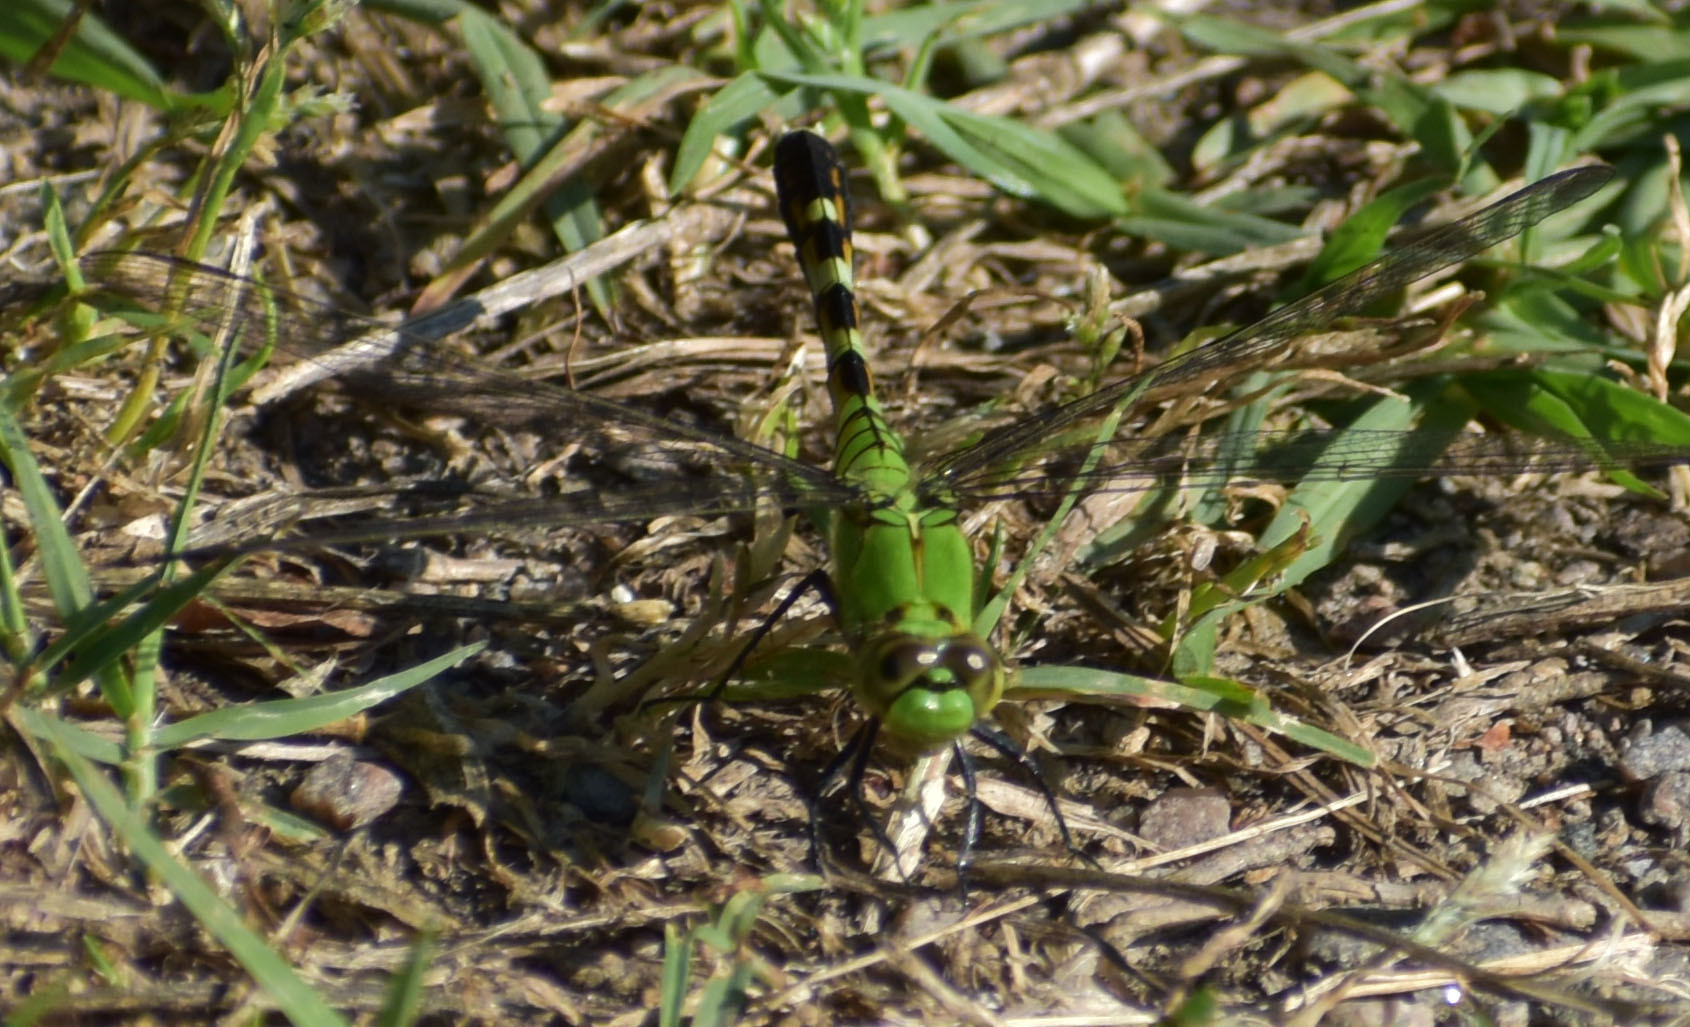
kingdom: Animalia
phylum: Arthropoda
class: Insecta
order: Odonata
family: Libellulidae
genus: Erythemis
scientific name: Erythemis simplicicollis
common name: Eastern pondhawk
